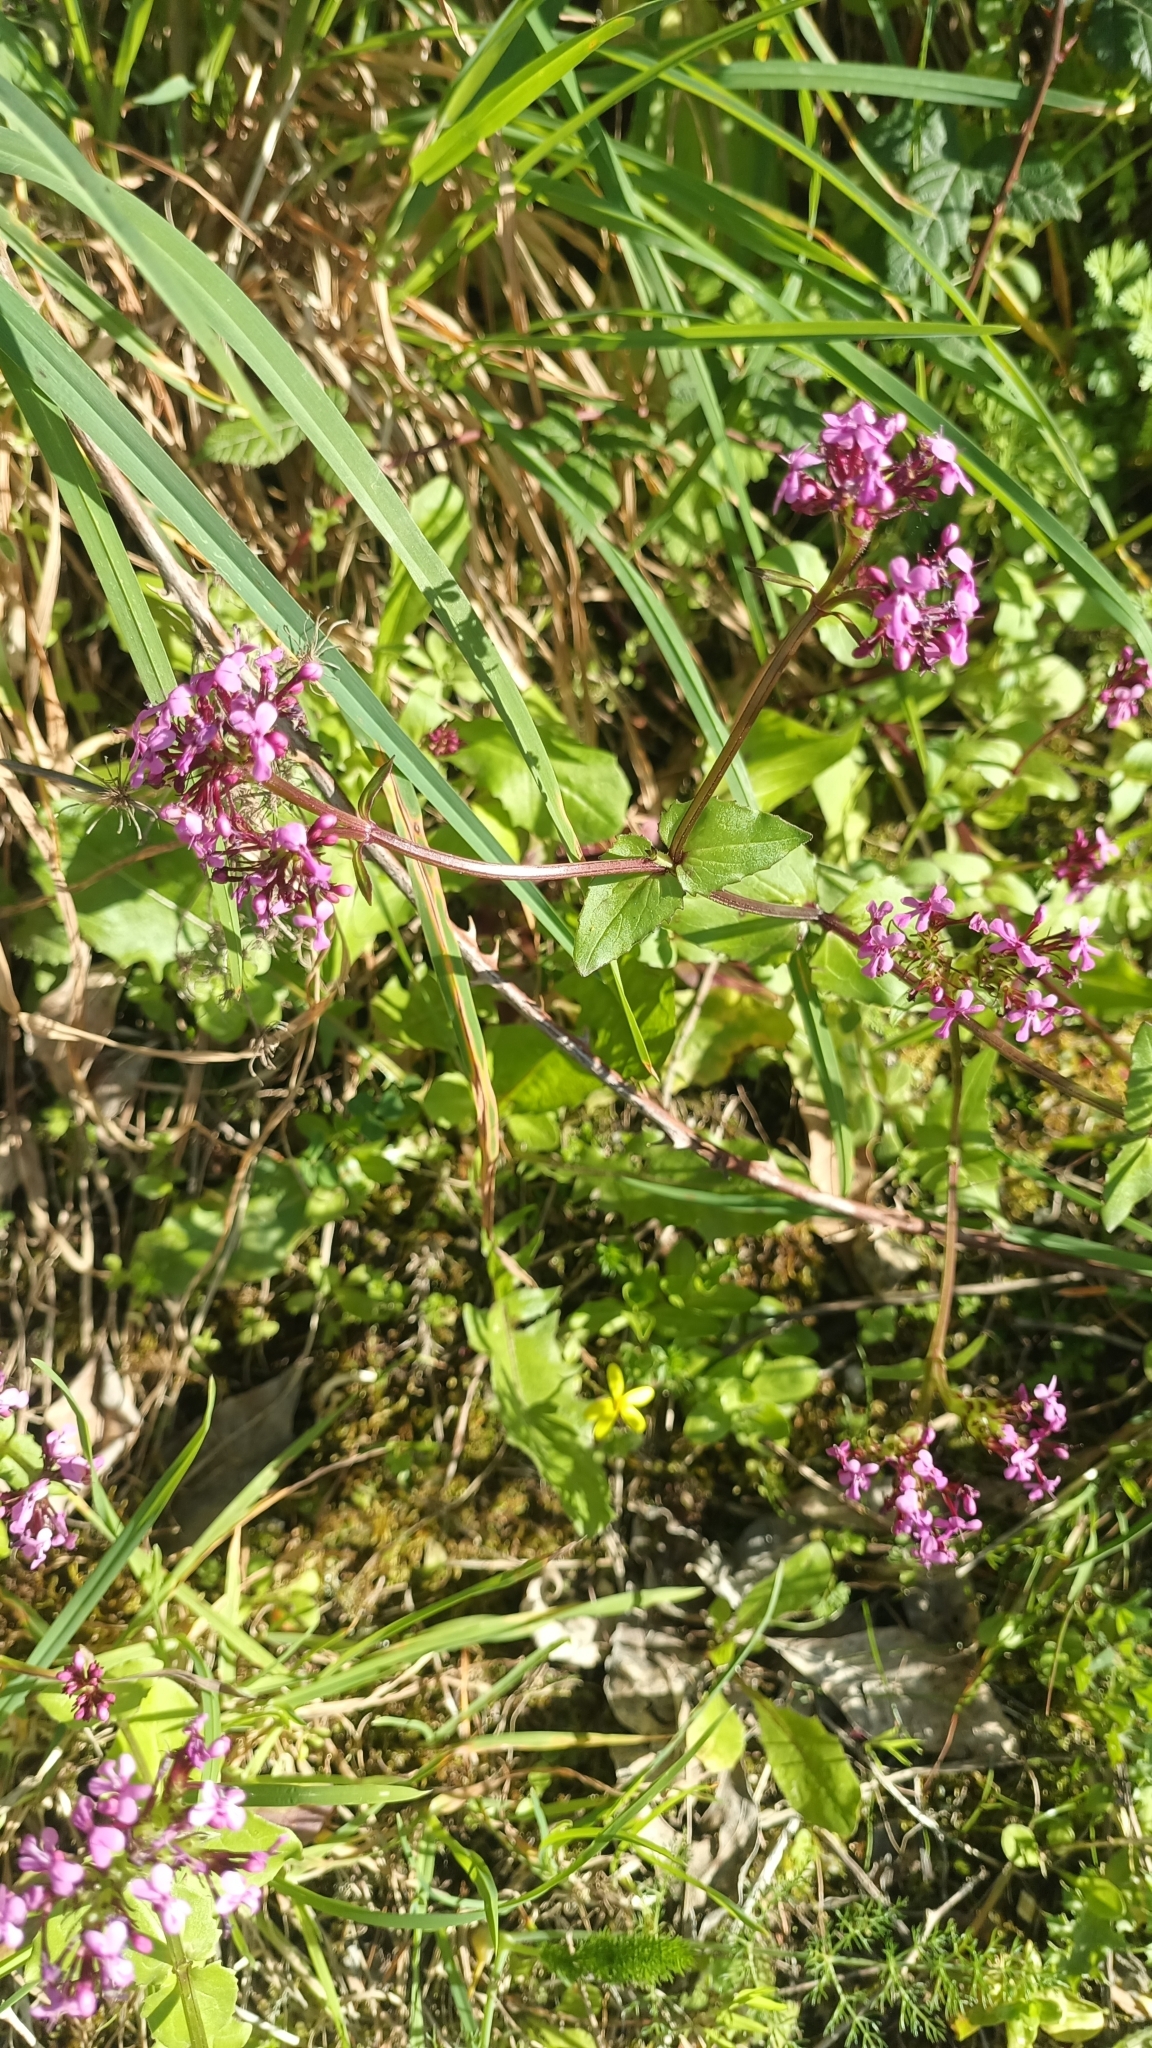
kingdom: Plantae
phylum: Tracheophyta
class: Magnoliopsida
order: Dipsacales
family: Caprifoliaceae
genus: Fedia
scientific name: Fedia graciliflora
